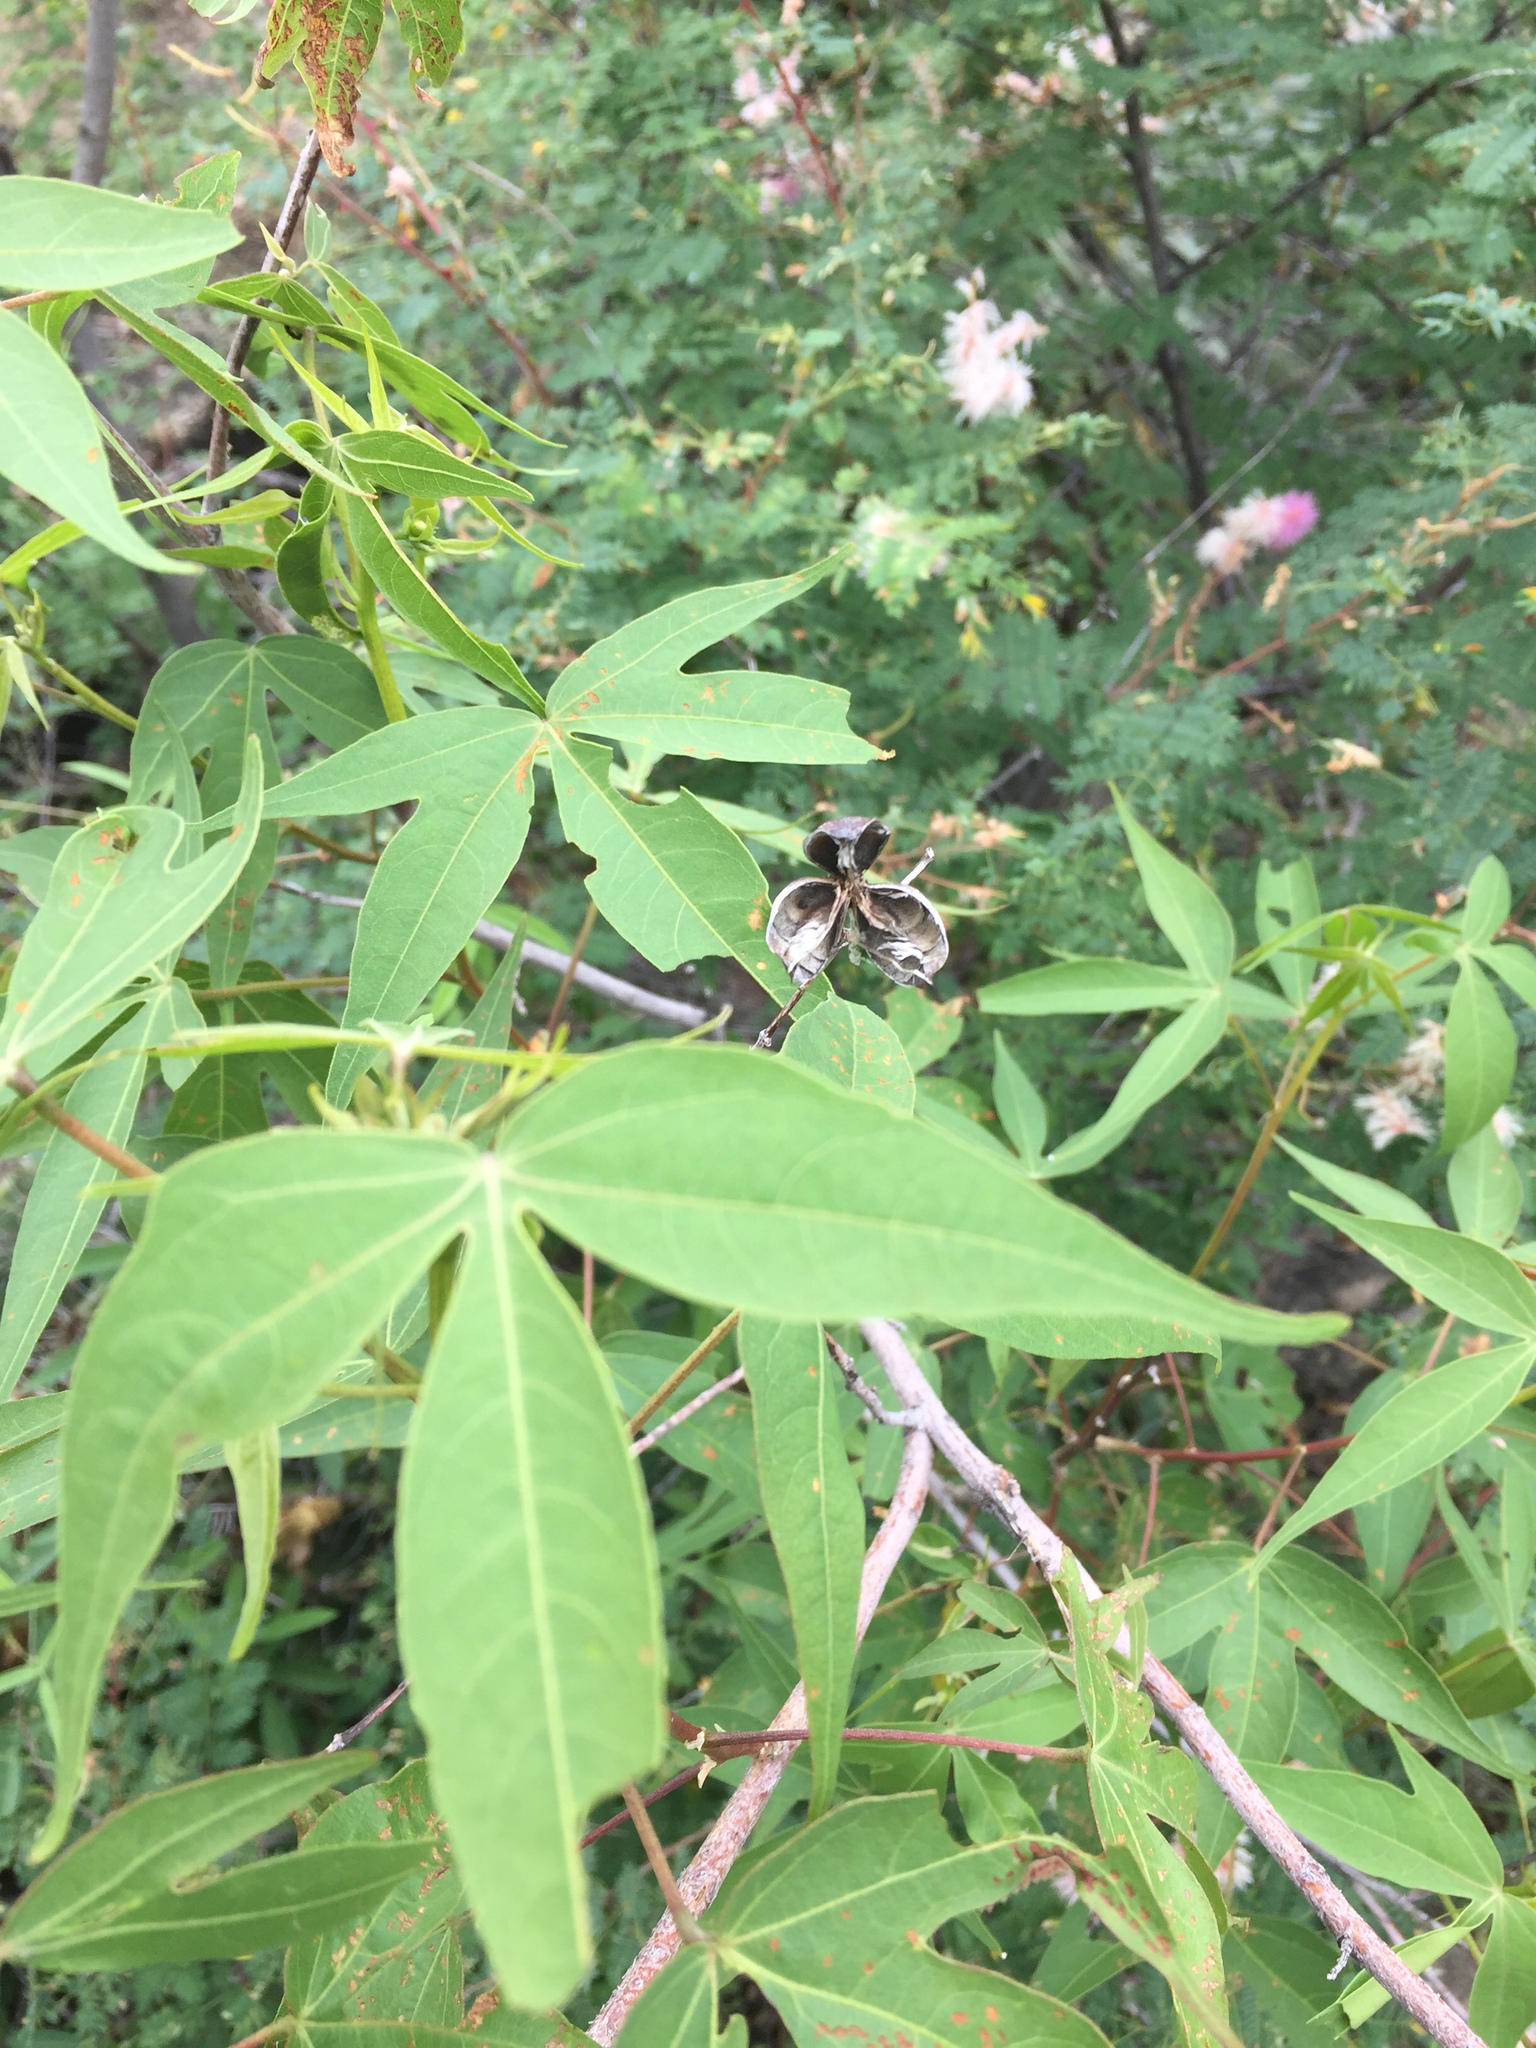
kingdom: Plantae
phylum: Tracheophyta
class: Magnoliopsida
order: Malvales
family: Malvaceae
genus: Gossypium
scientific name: Gossypium thurberi
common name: Desert cotton
